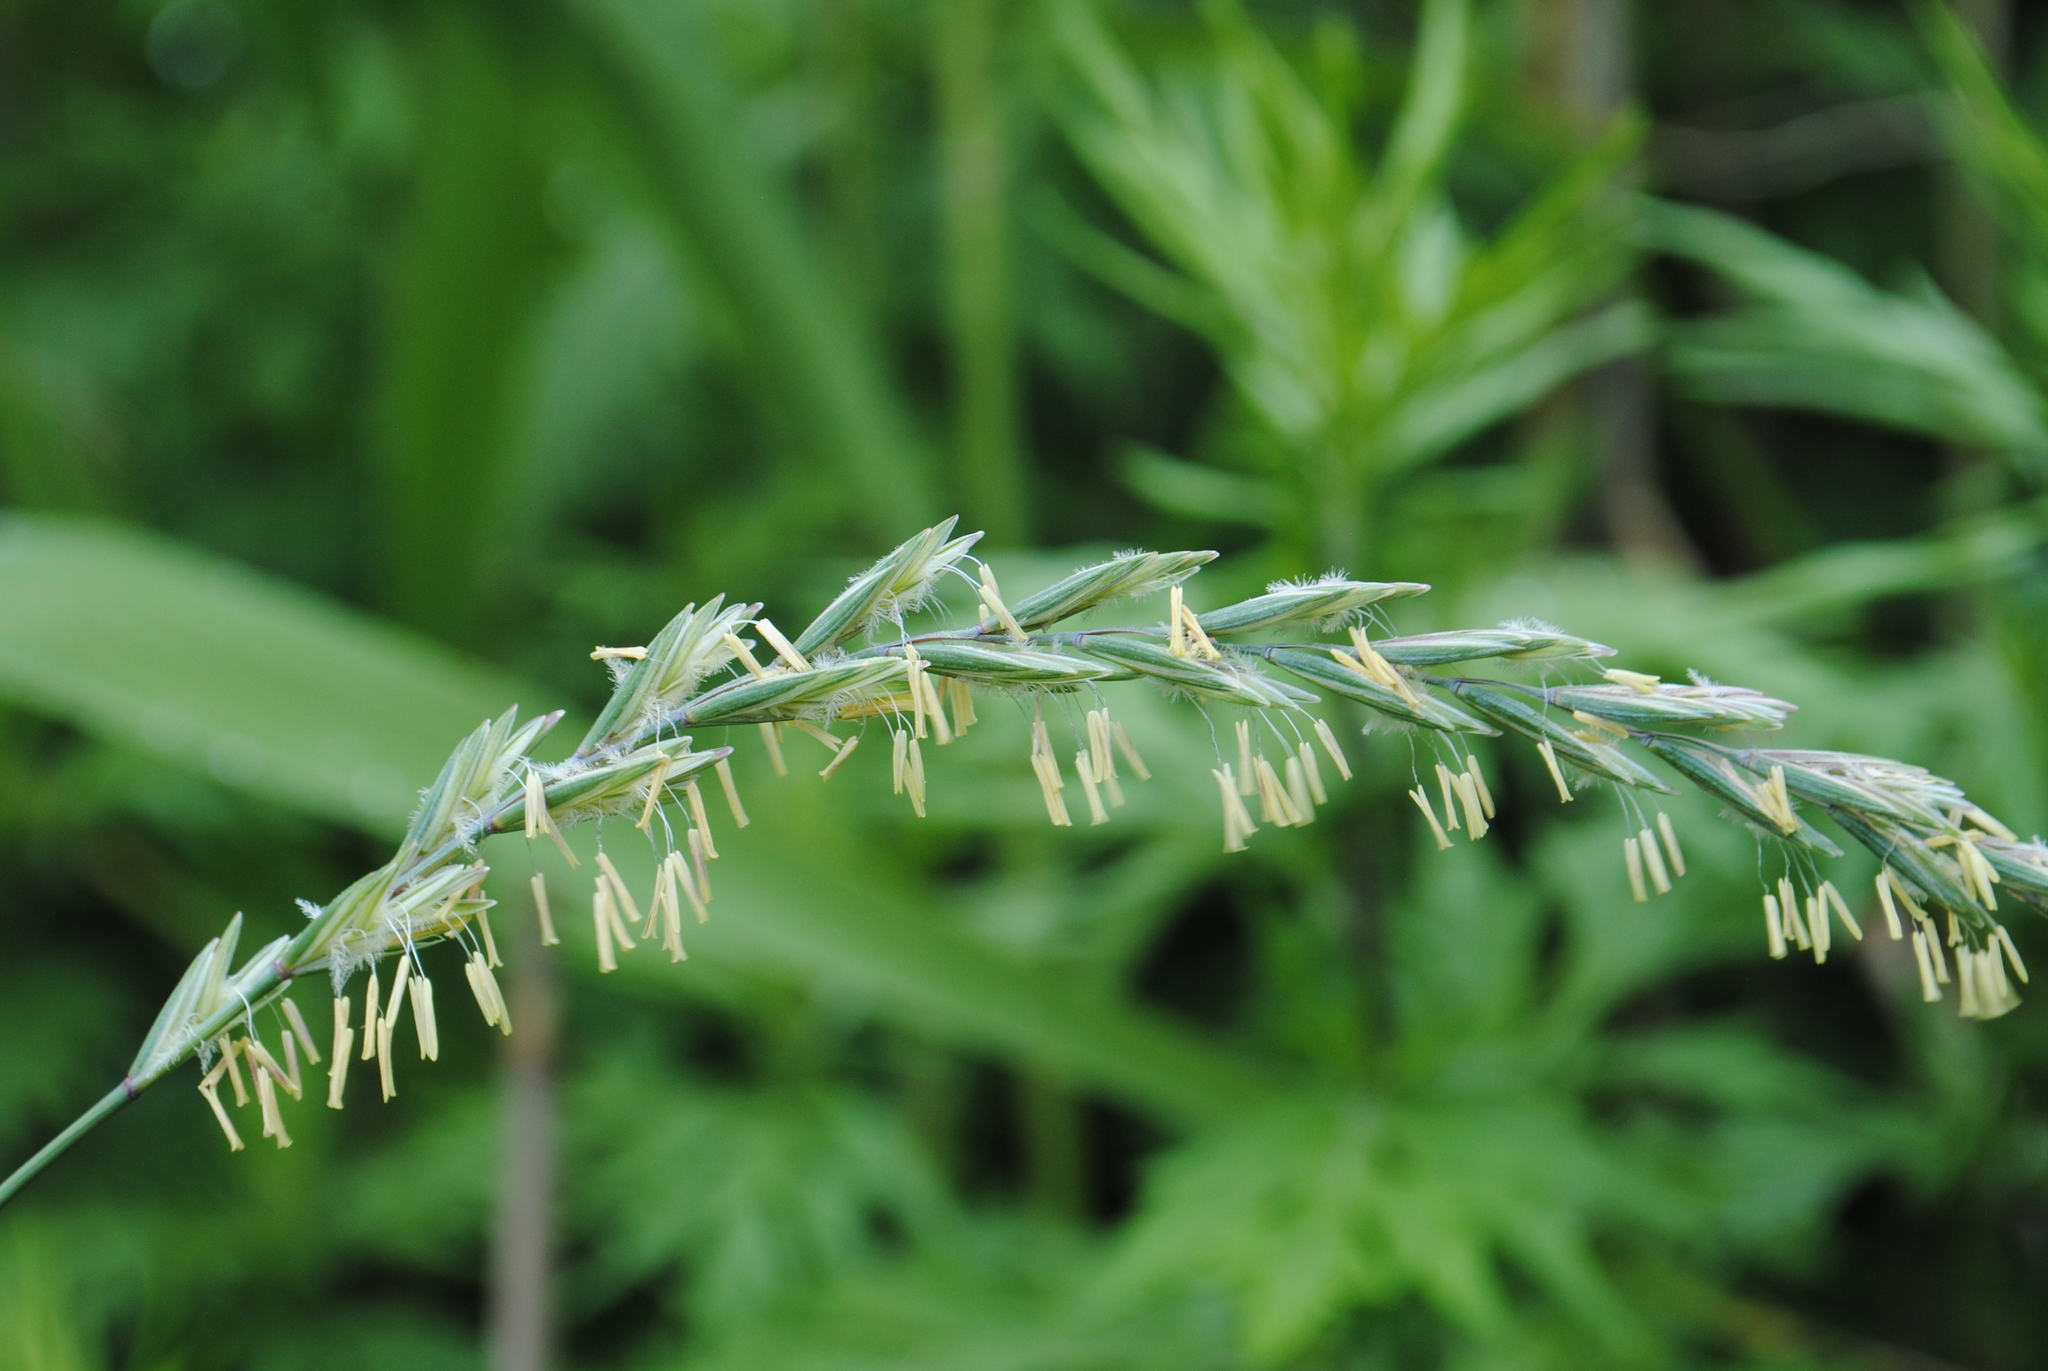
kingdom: Plantae
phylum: Tracheophyta
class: Liliopsida
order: Poales
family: Poaceae
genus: Lolium
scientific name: Lolium perenne
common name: Perennial ryegrass
